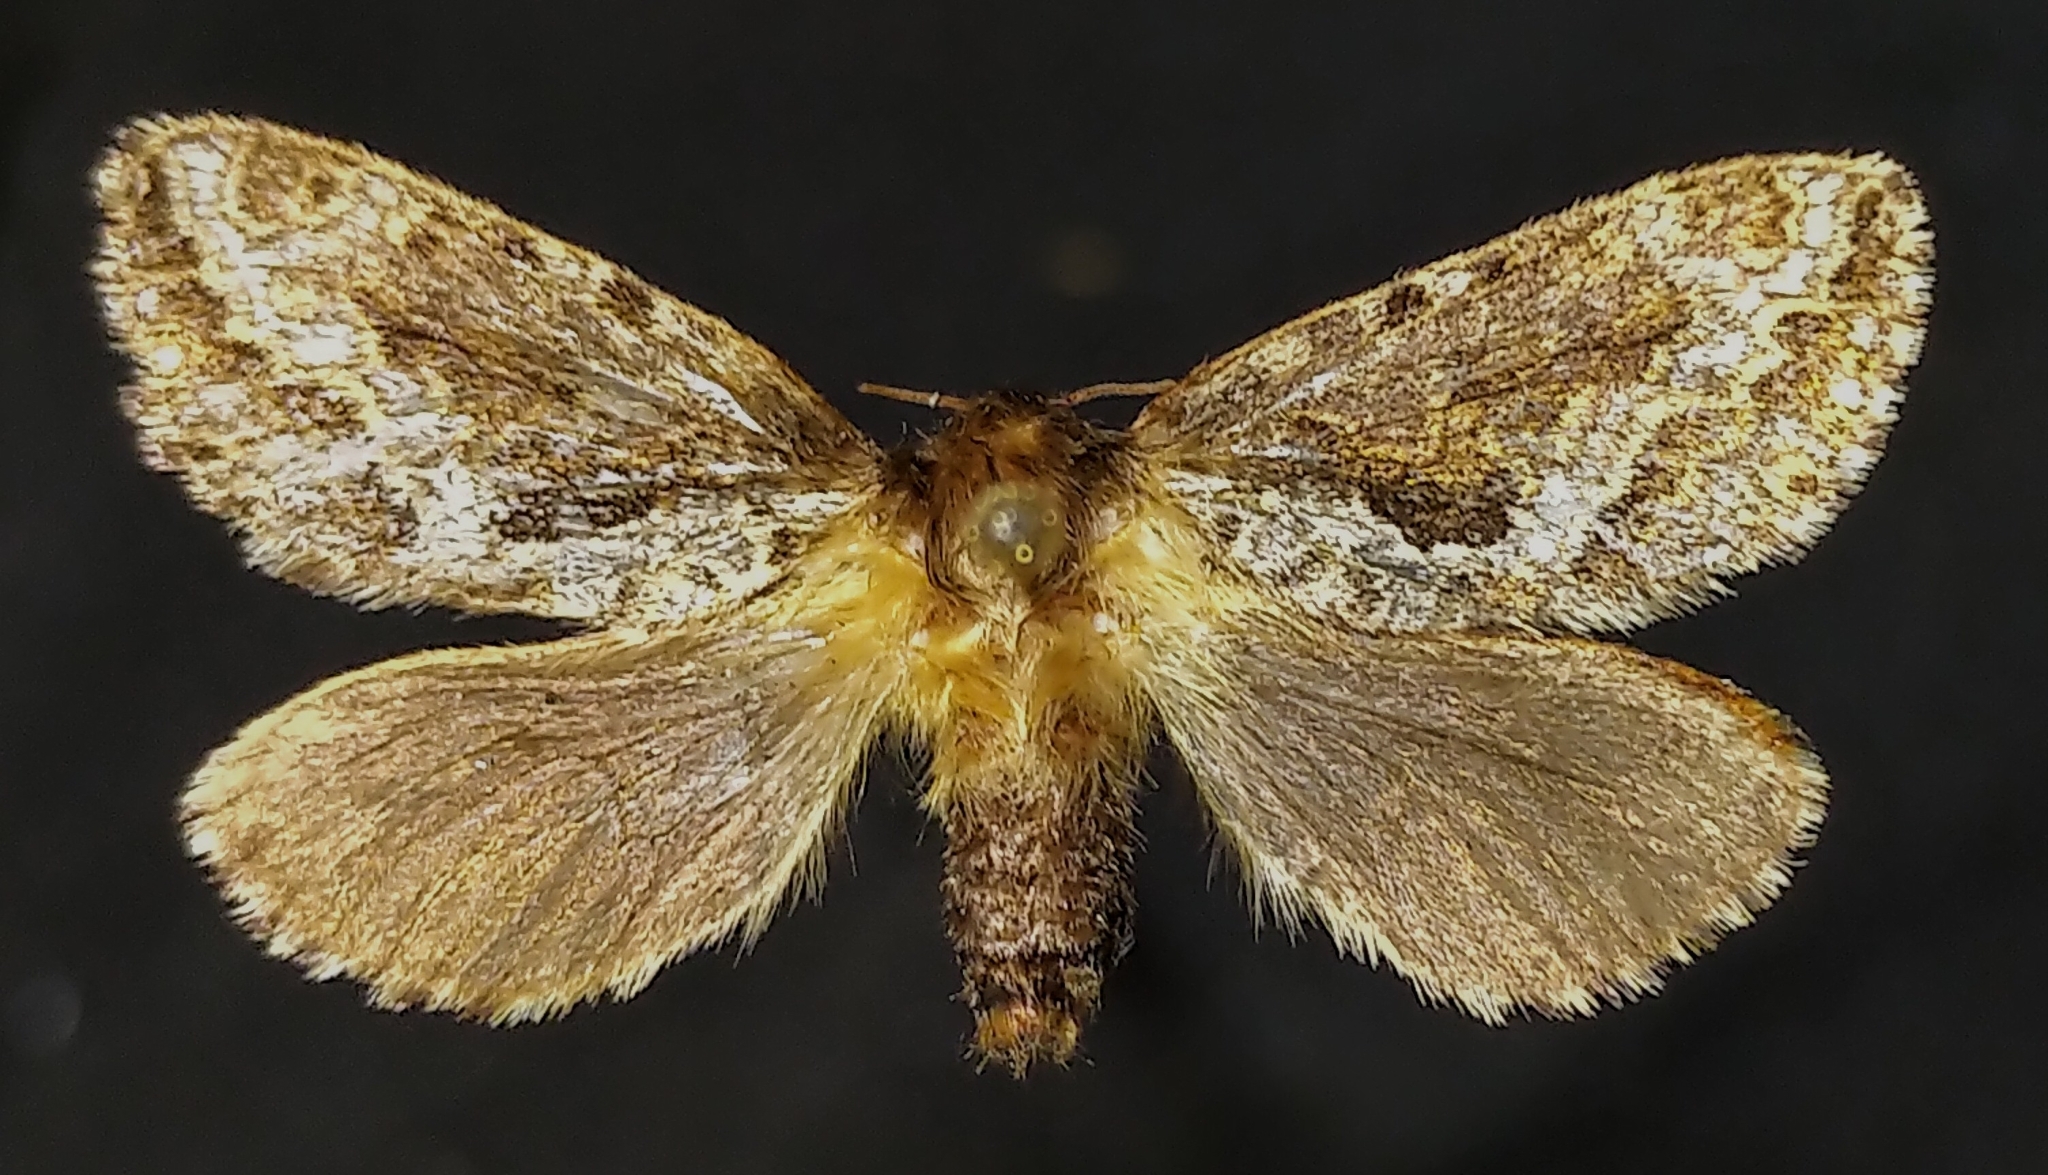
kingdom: Animalia
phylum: Arthropoda
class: Insecta
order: Lepidoptera
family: Hepialidae
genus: Korscheltellus
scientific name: Korscheltellus gracilis
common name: Conifer swift moth
